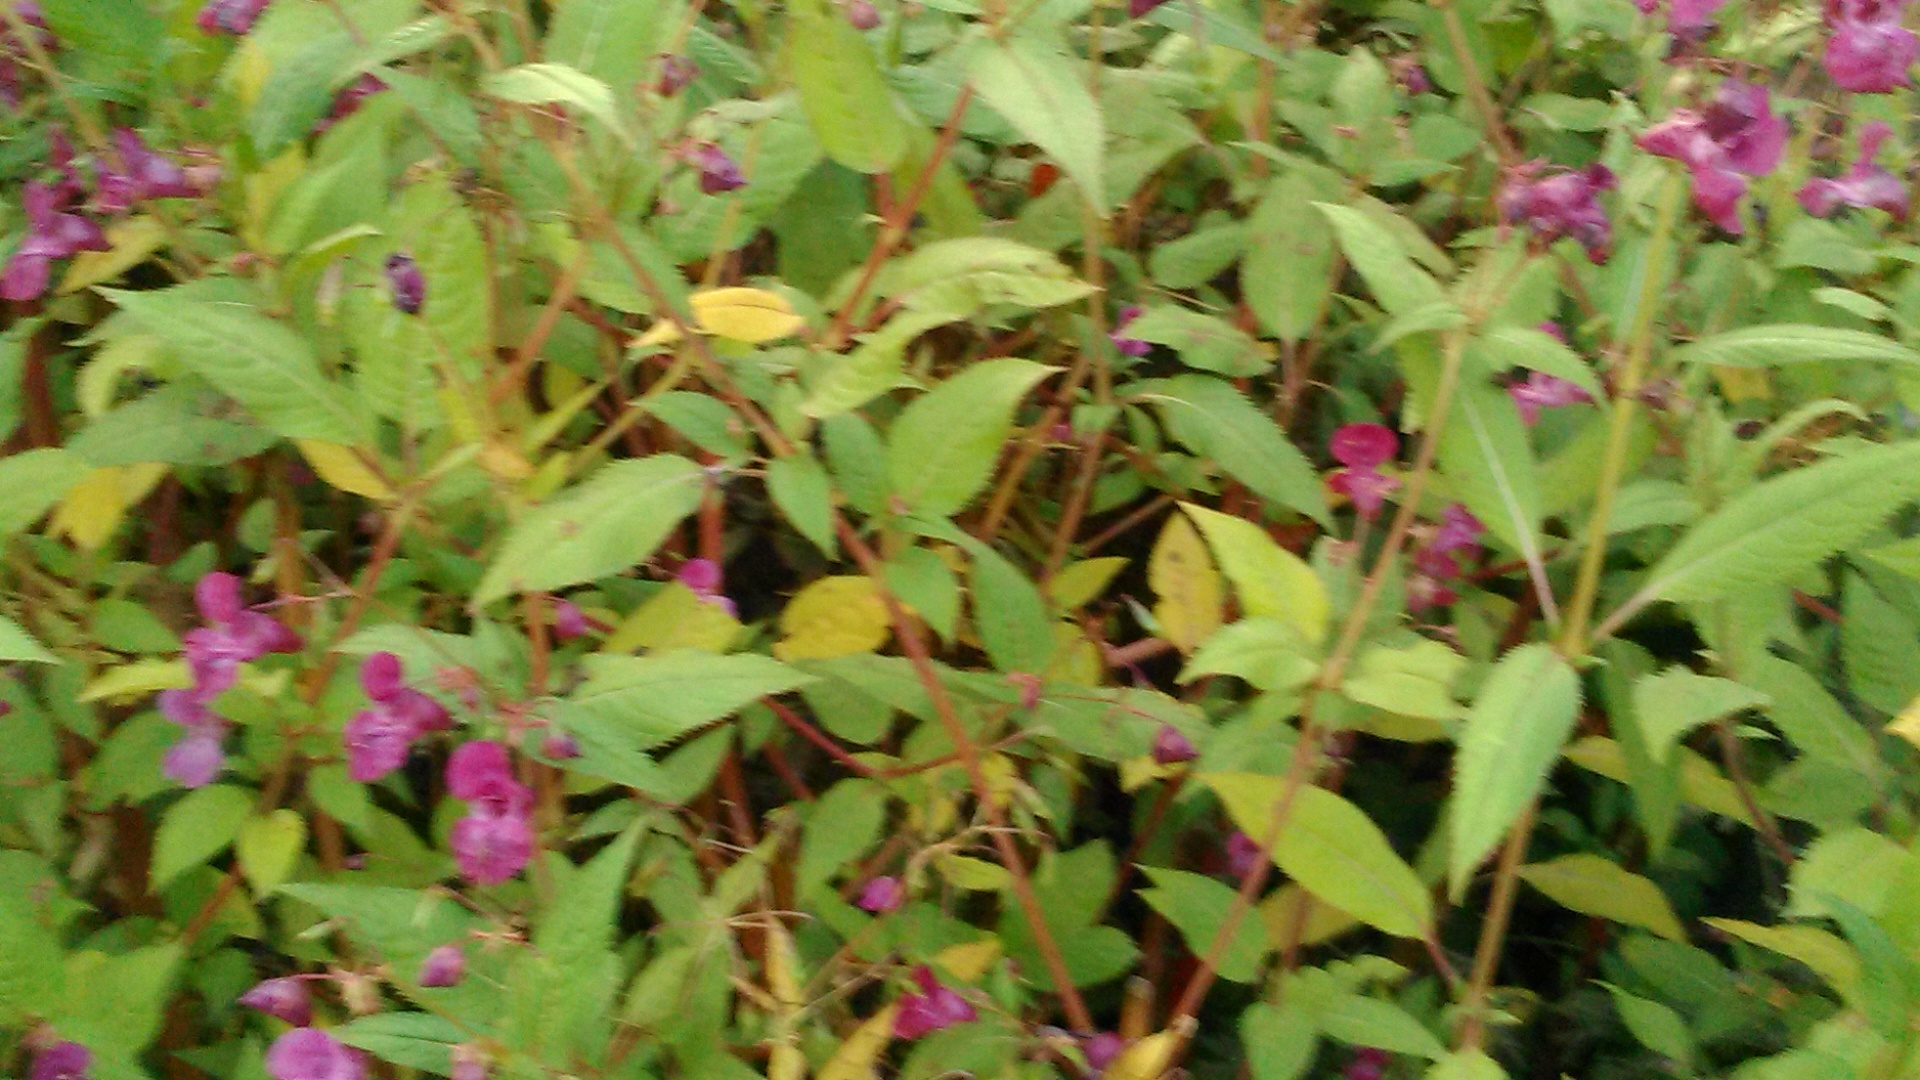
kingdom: Plantae
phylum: Tracheophyta
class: Magnoliopsida
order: Ericales
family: Balsaminaceae
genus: Impatiens
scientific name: Impatiens glandulifera
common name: Himalayan balsam
